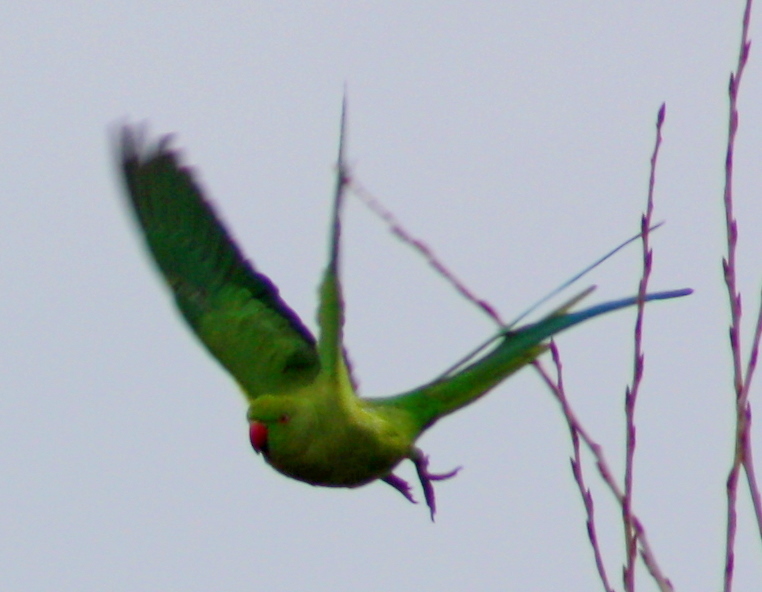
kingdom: Animalia
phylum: Chordata
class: Aves
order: Psittaciformes
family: Psittacidae
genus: Psittacula
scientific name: Psittacula krameri
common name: Rose-ringed parakeet
